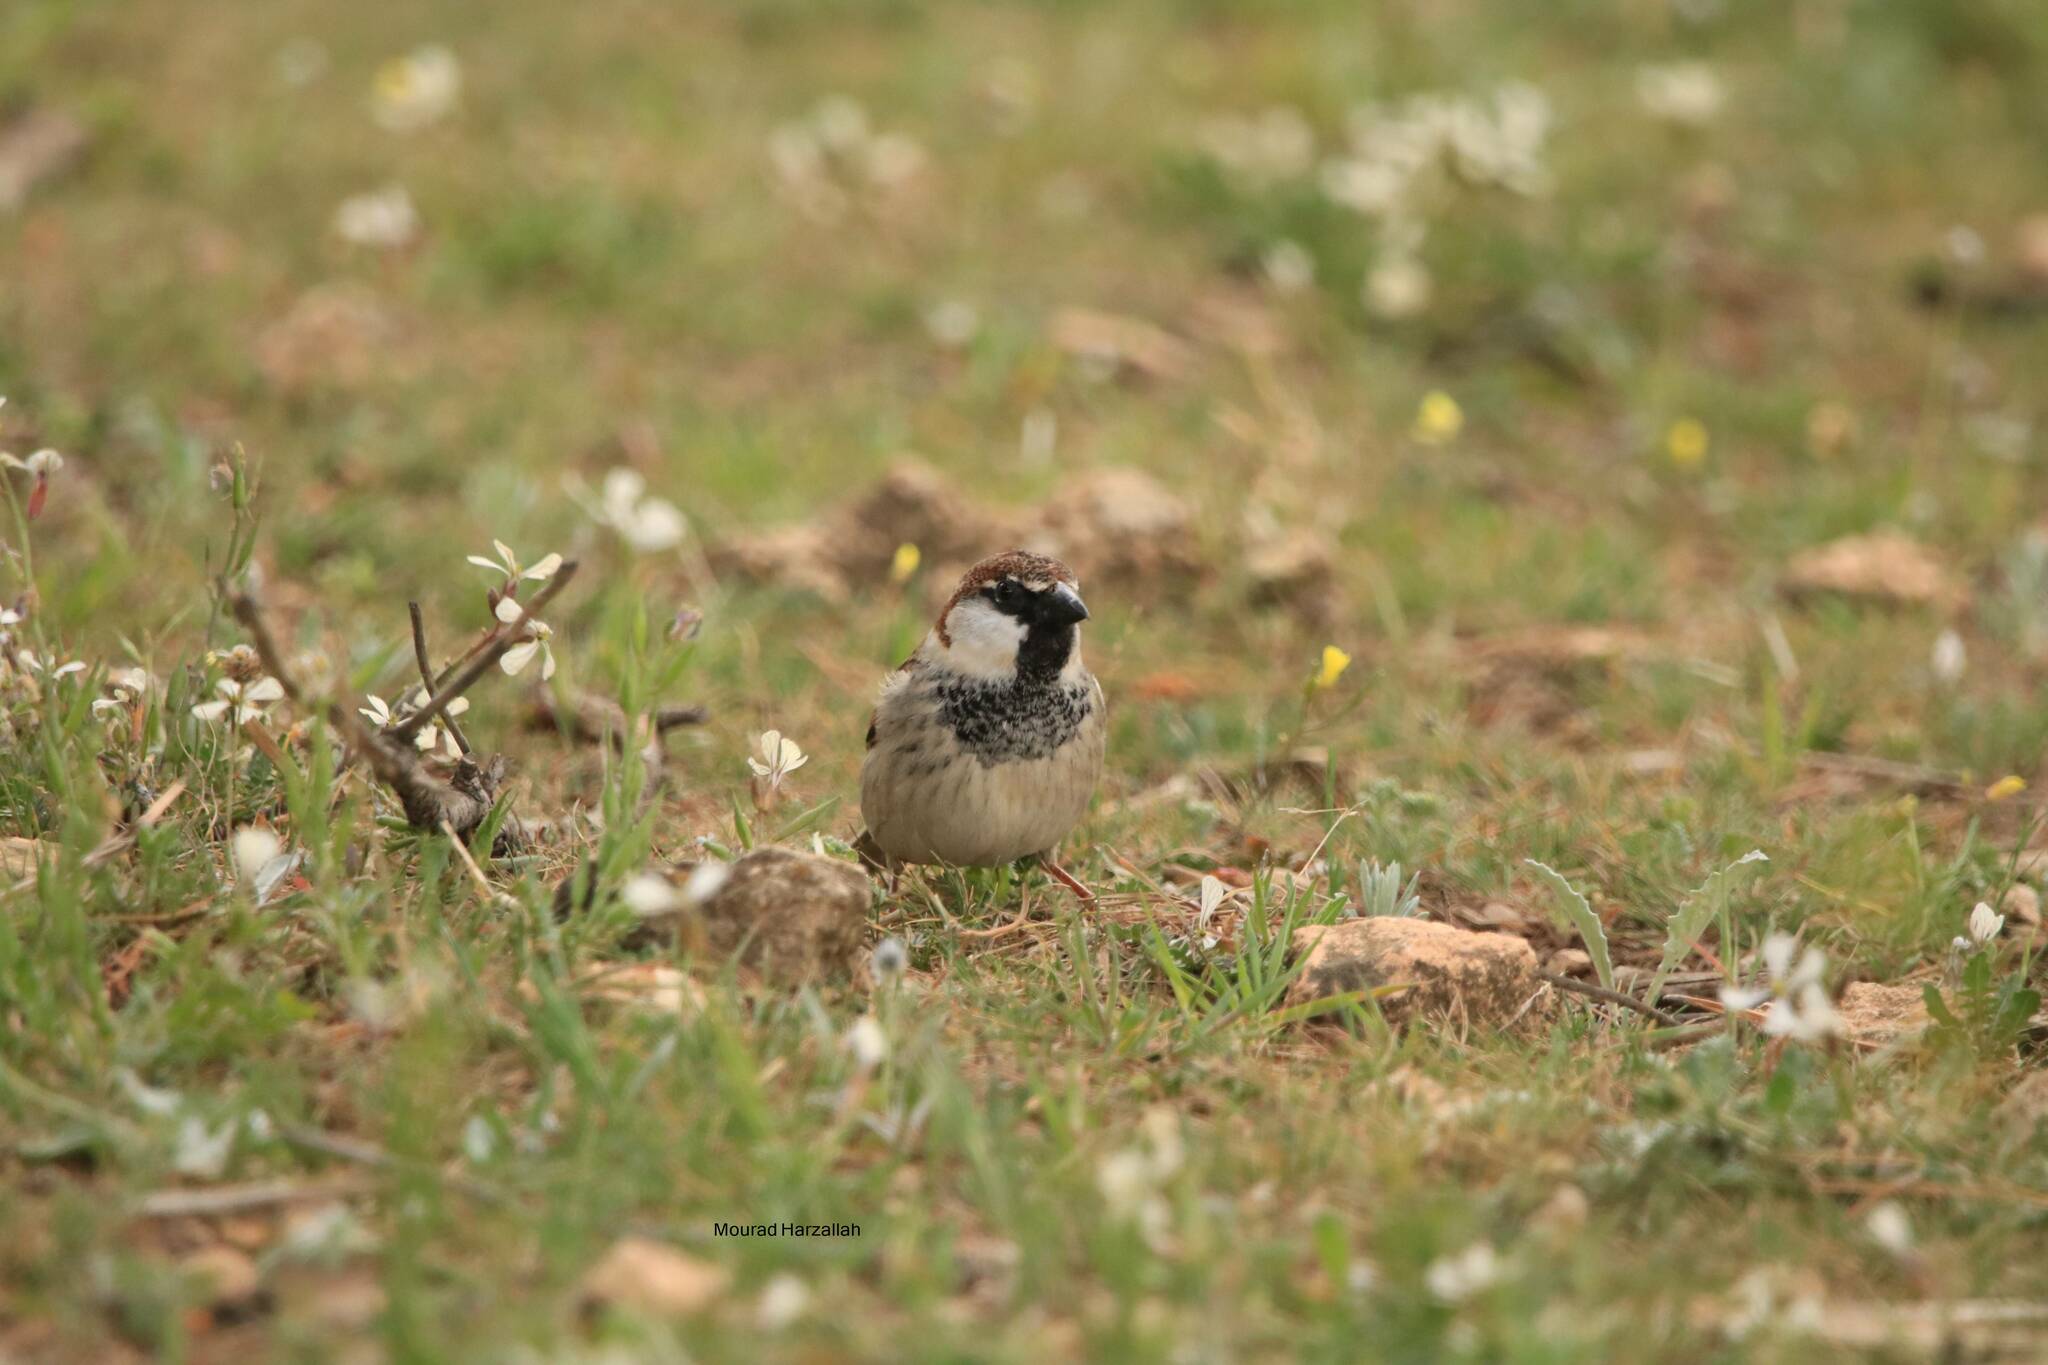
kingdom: Animalia
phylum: Chordata
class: Aves
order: Passeriformes
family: Passeridae
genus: Passer
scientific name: Passer hispaniolensis
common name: Spanish sparrow
